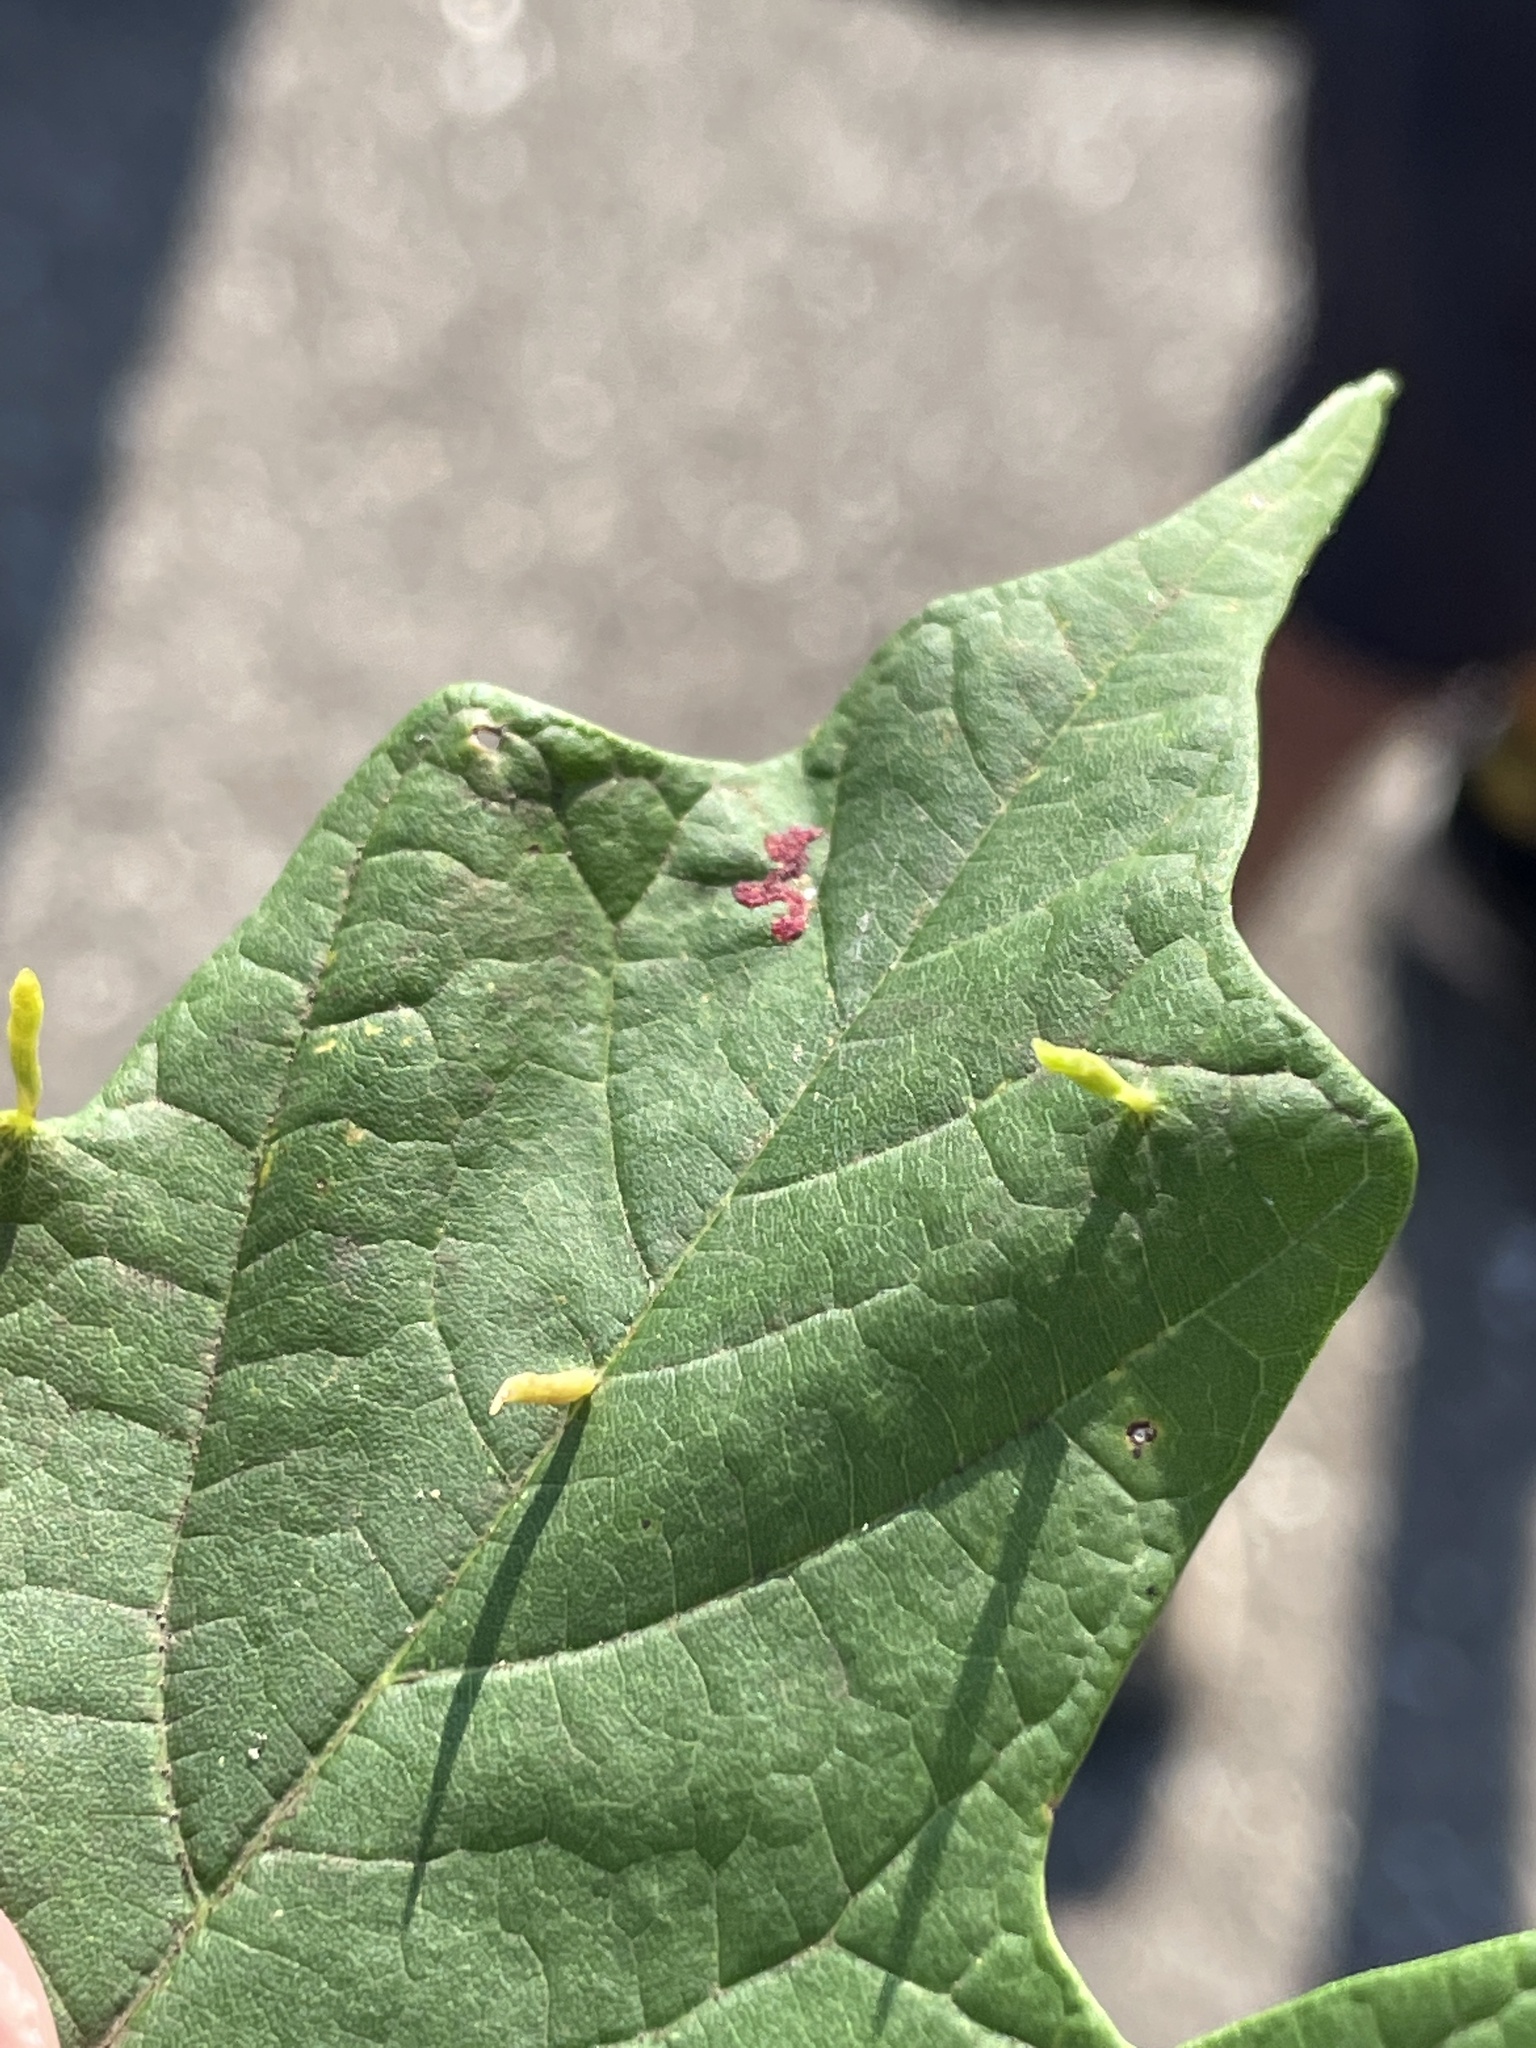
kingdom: Animalia
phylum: Arthropoda
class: Arachnida
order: Trombidiformes
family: Eriophyidae
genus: Vasates
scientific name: Vasates aceriscrumena
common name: Maple spindle gall mite
